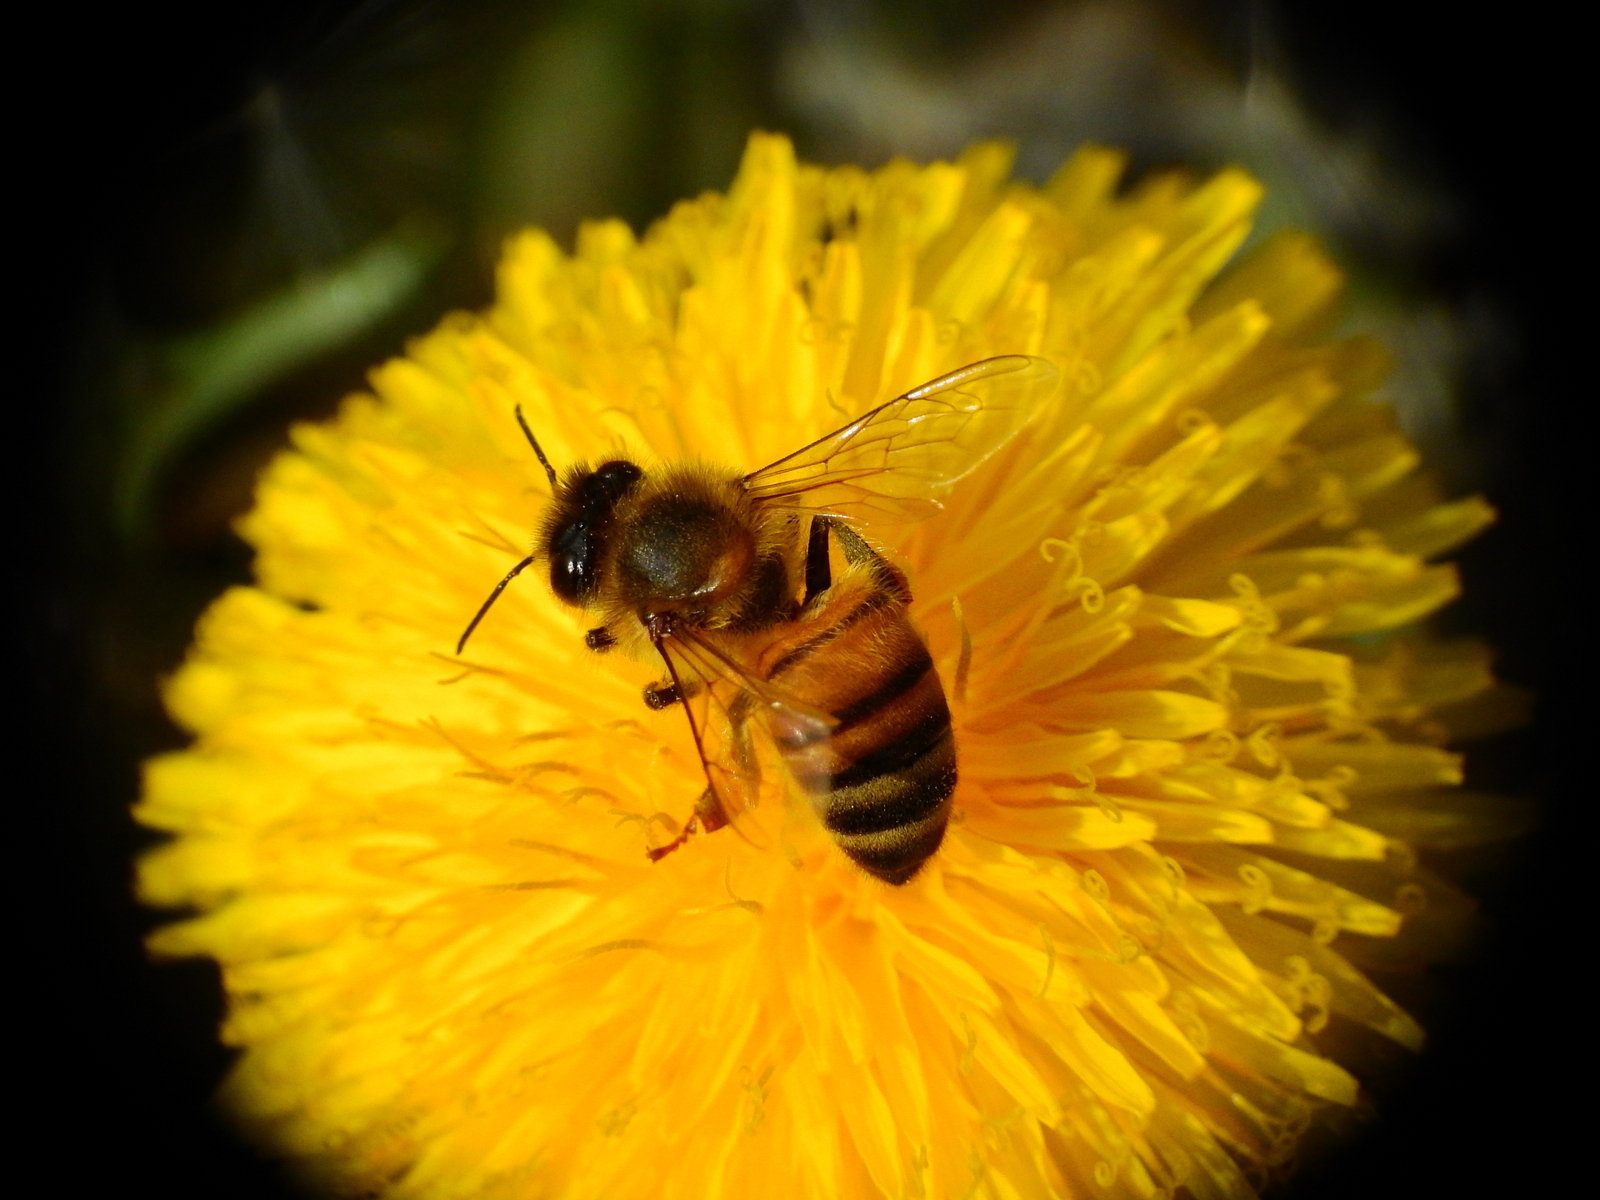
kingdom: Plantae
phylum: Tracheophyta
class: Magnoliopsida
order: Asterales
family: Asteraceae
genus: Taraxacum
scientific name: Taraxacum officinale
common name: Common dandelion
